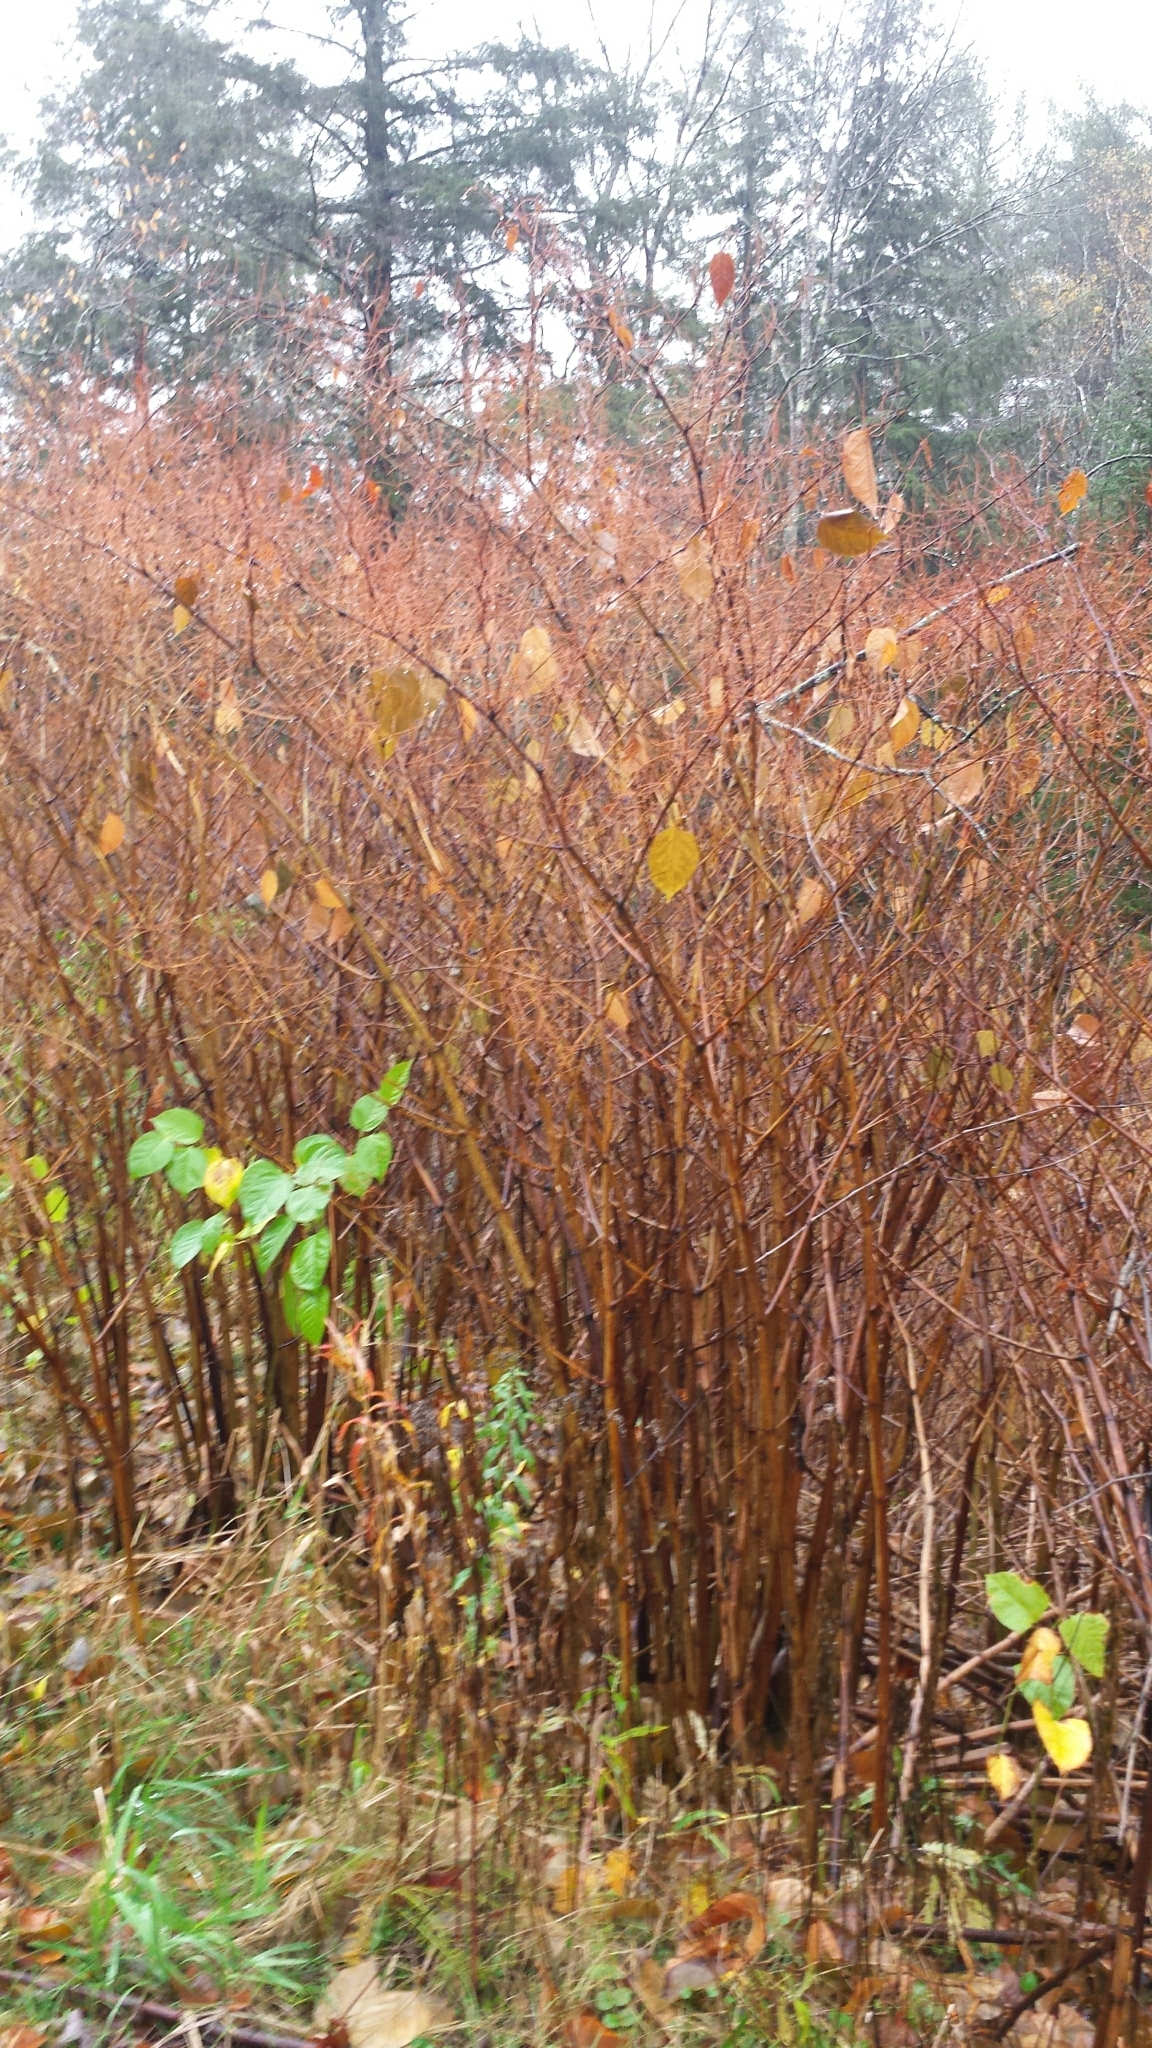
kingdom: Plantae
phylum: Tracheophyta
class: Magnoliopsida
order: Caryophyllales
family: Polygonaceae
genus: Reynoutria
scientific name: Reynoutria japonica
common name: Japanese knotweed
